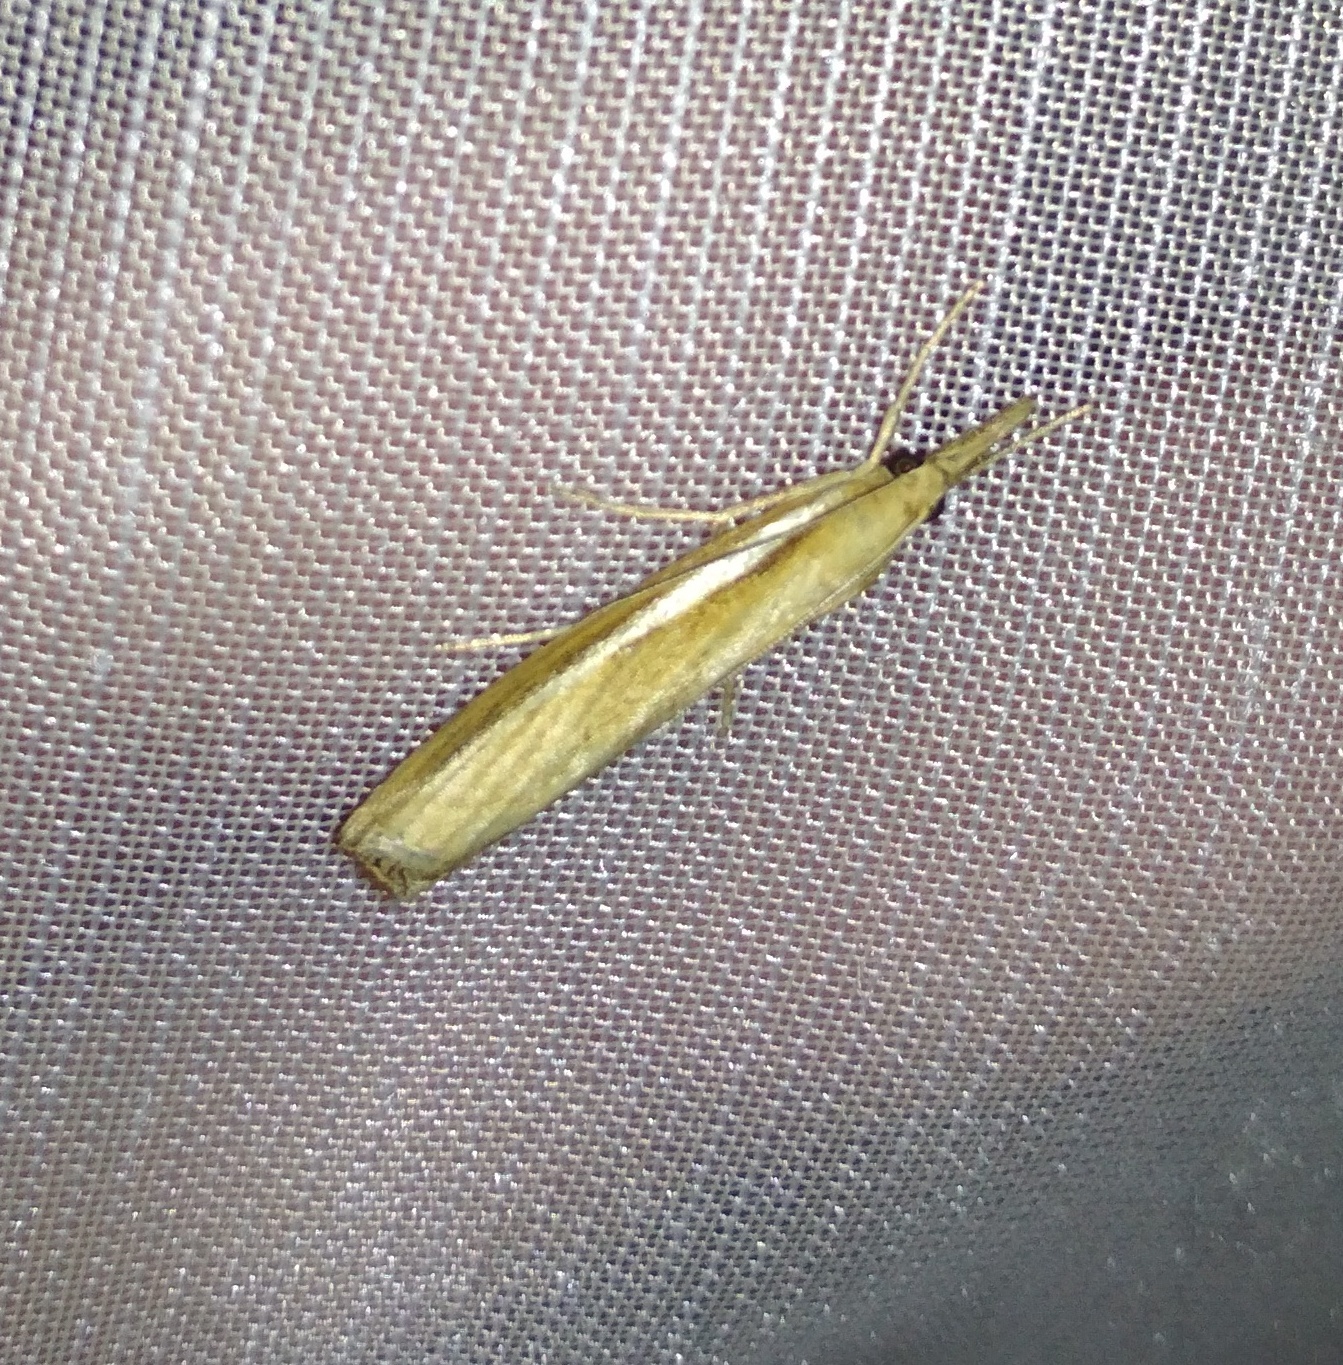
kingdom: Animalia
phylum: Arthropoda
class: Insecta
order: Lepidoptera
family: Crambidae
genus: Agriphila
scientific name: Agriphila tristellus
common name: Common grass-veneer
